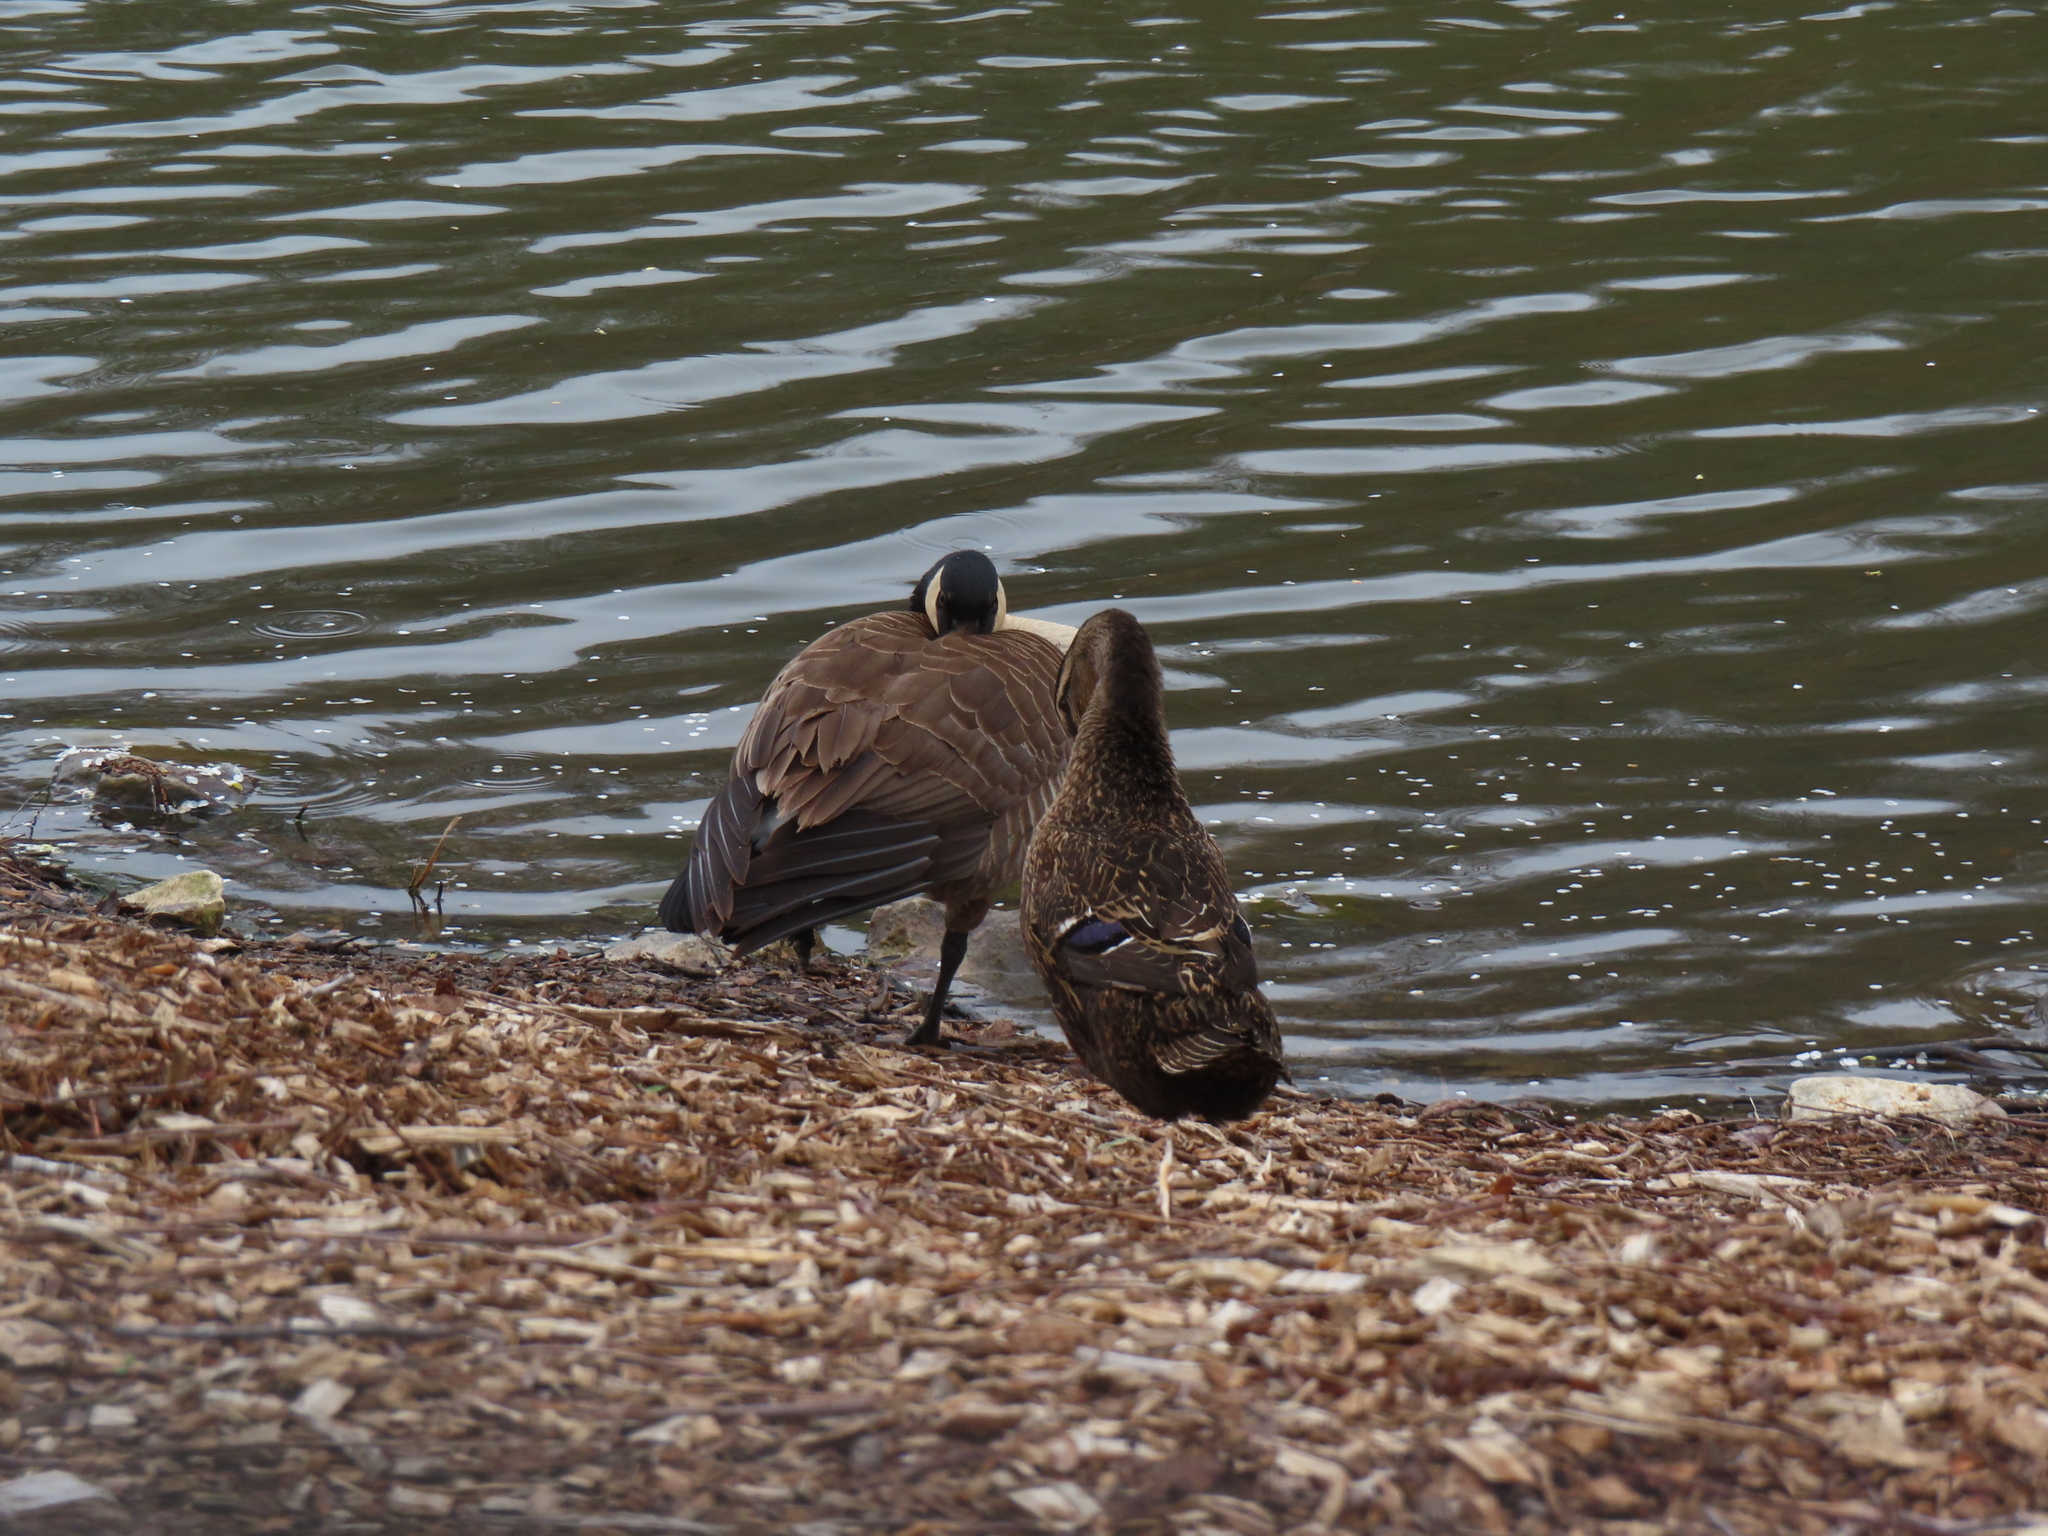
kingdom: Animalia
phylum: Chordata
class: Aves
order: Anseriformes
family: Anatidae
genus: Branta
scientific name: Branta canadensis
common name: Canada goose
